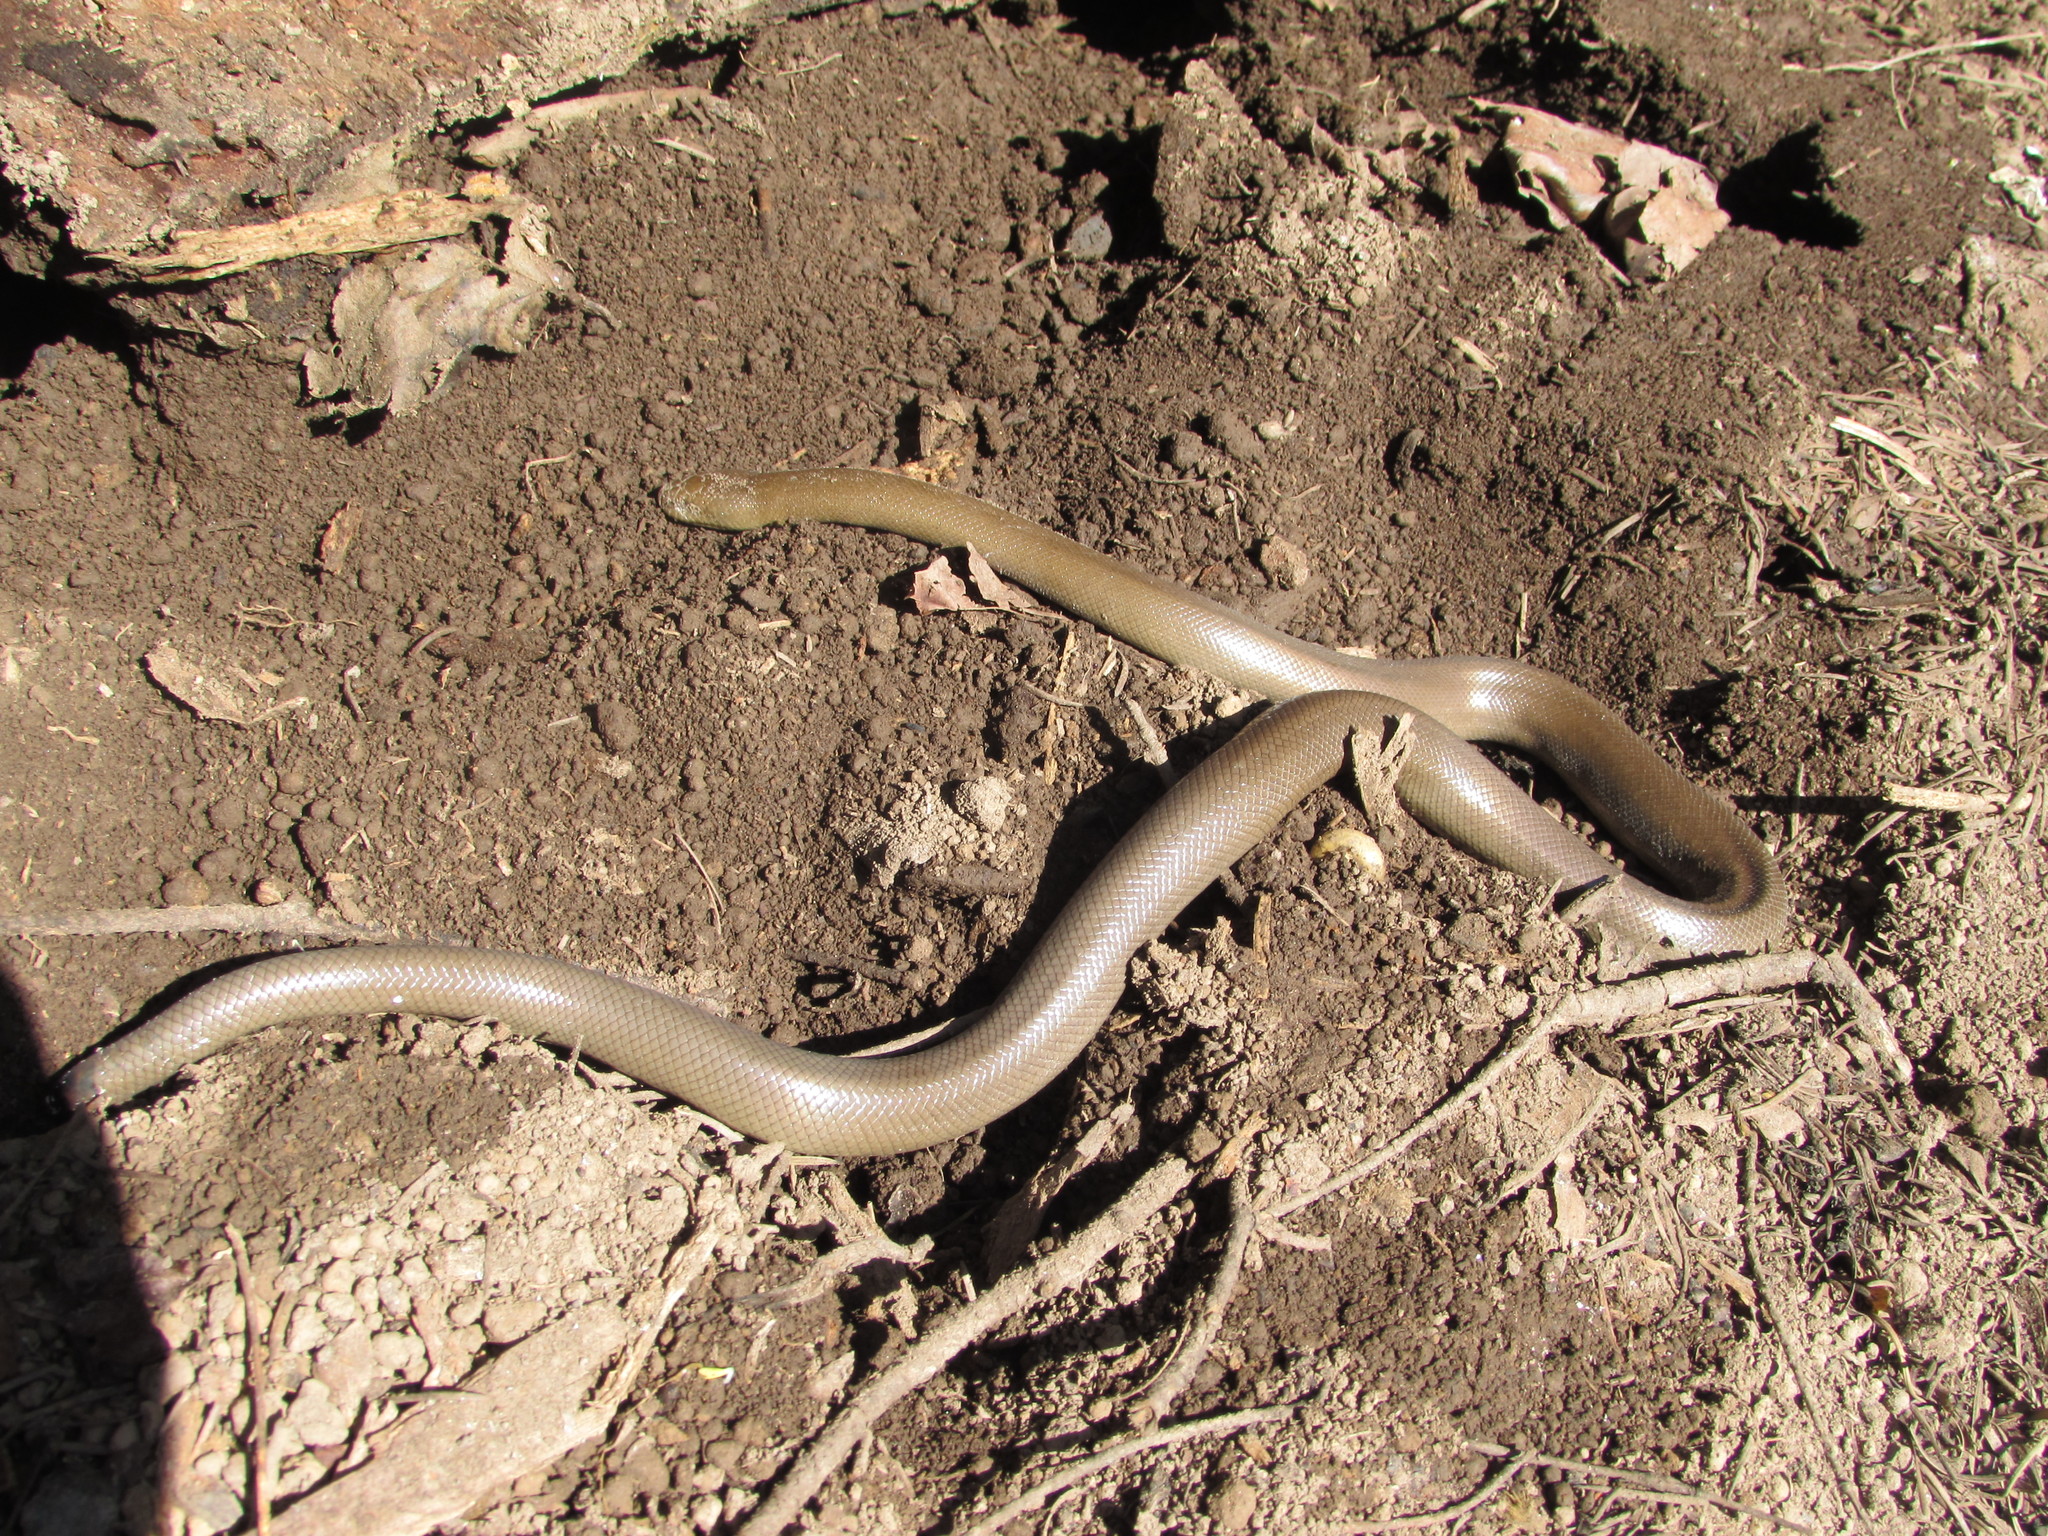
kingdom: Animalia
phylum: Chordata
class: Squamata
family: Boidae
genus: Charina
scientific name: Charina bottae
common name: Northern rubber boa
